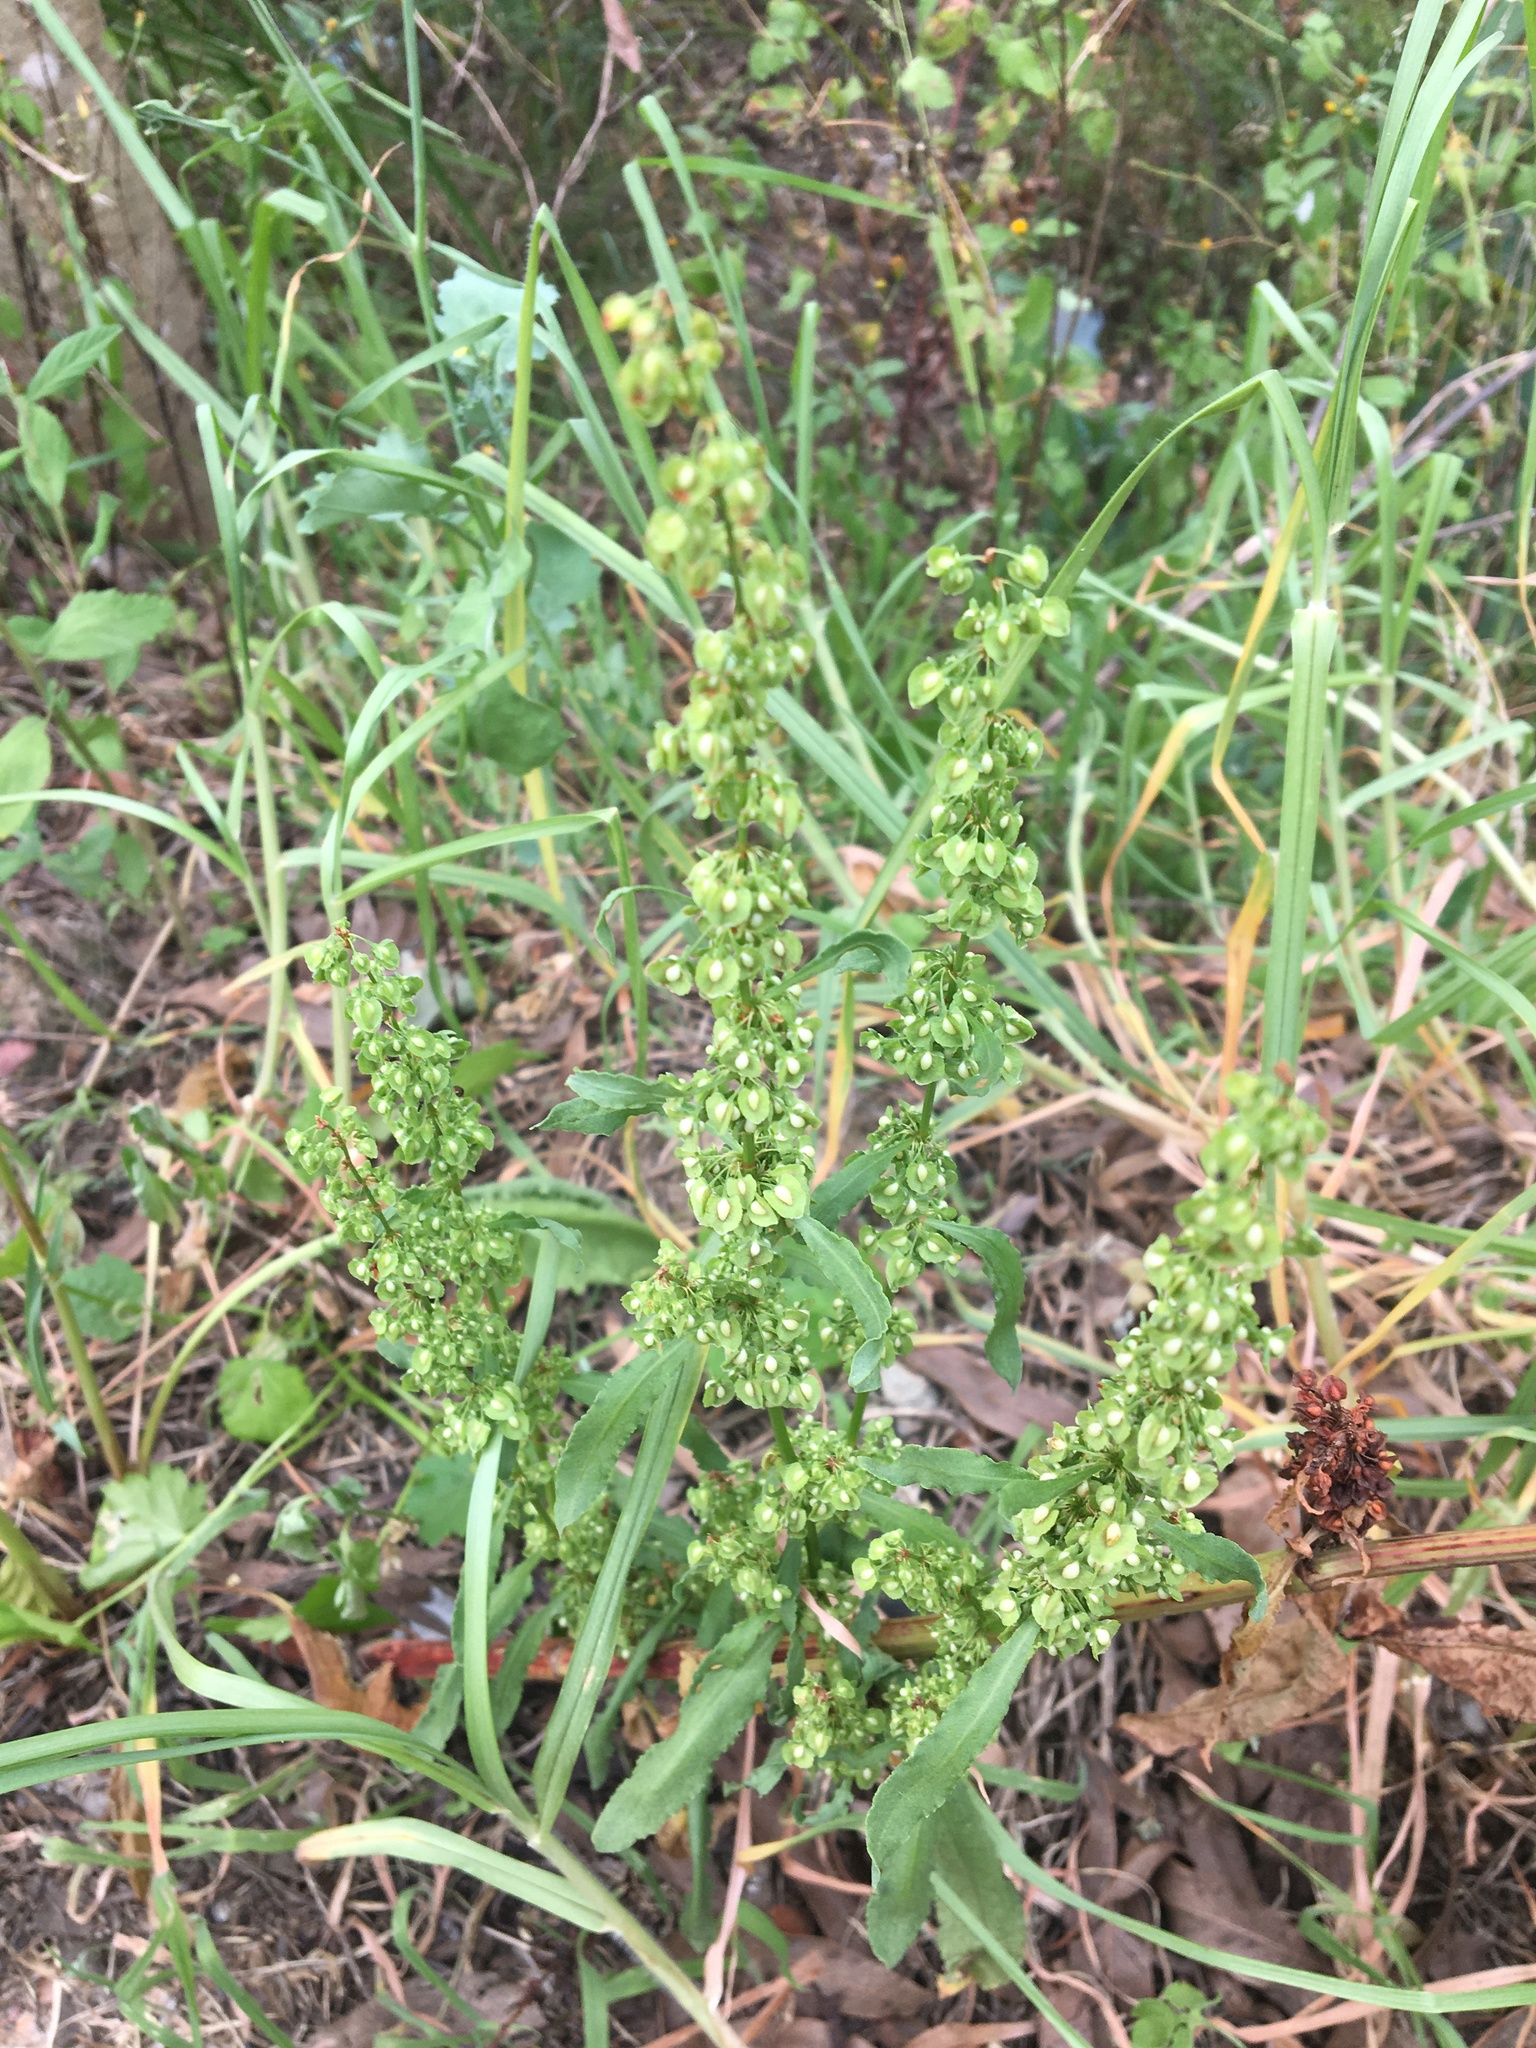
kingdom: Plantae
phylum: Tracheophyta
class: Magnoliopsida
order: Caryophyllales
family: Polygonaceae
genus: Rumex
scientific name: Rumex crispus
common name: Curled dock
